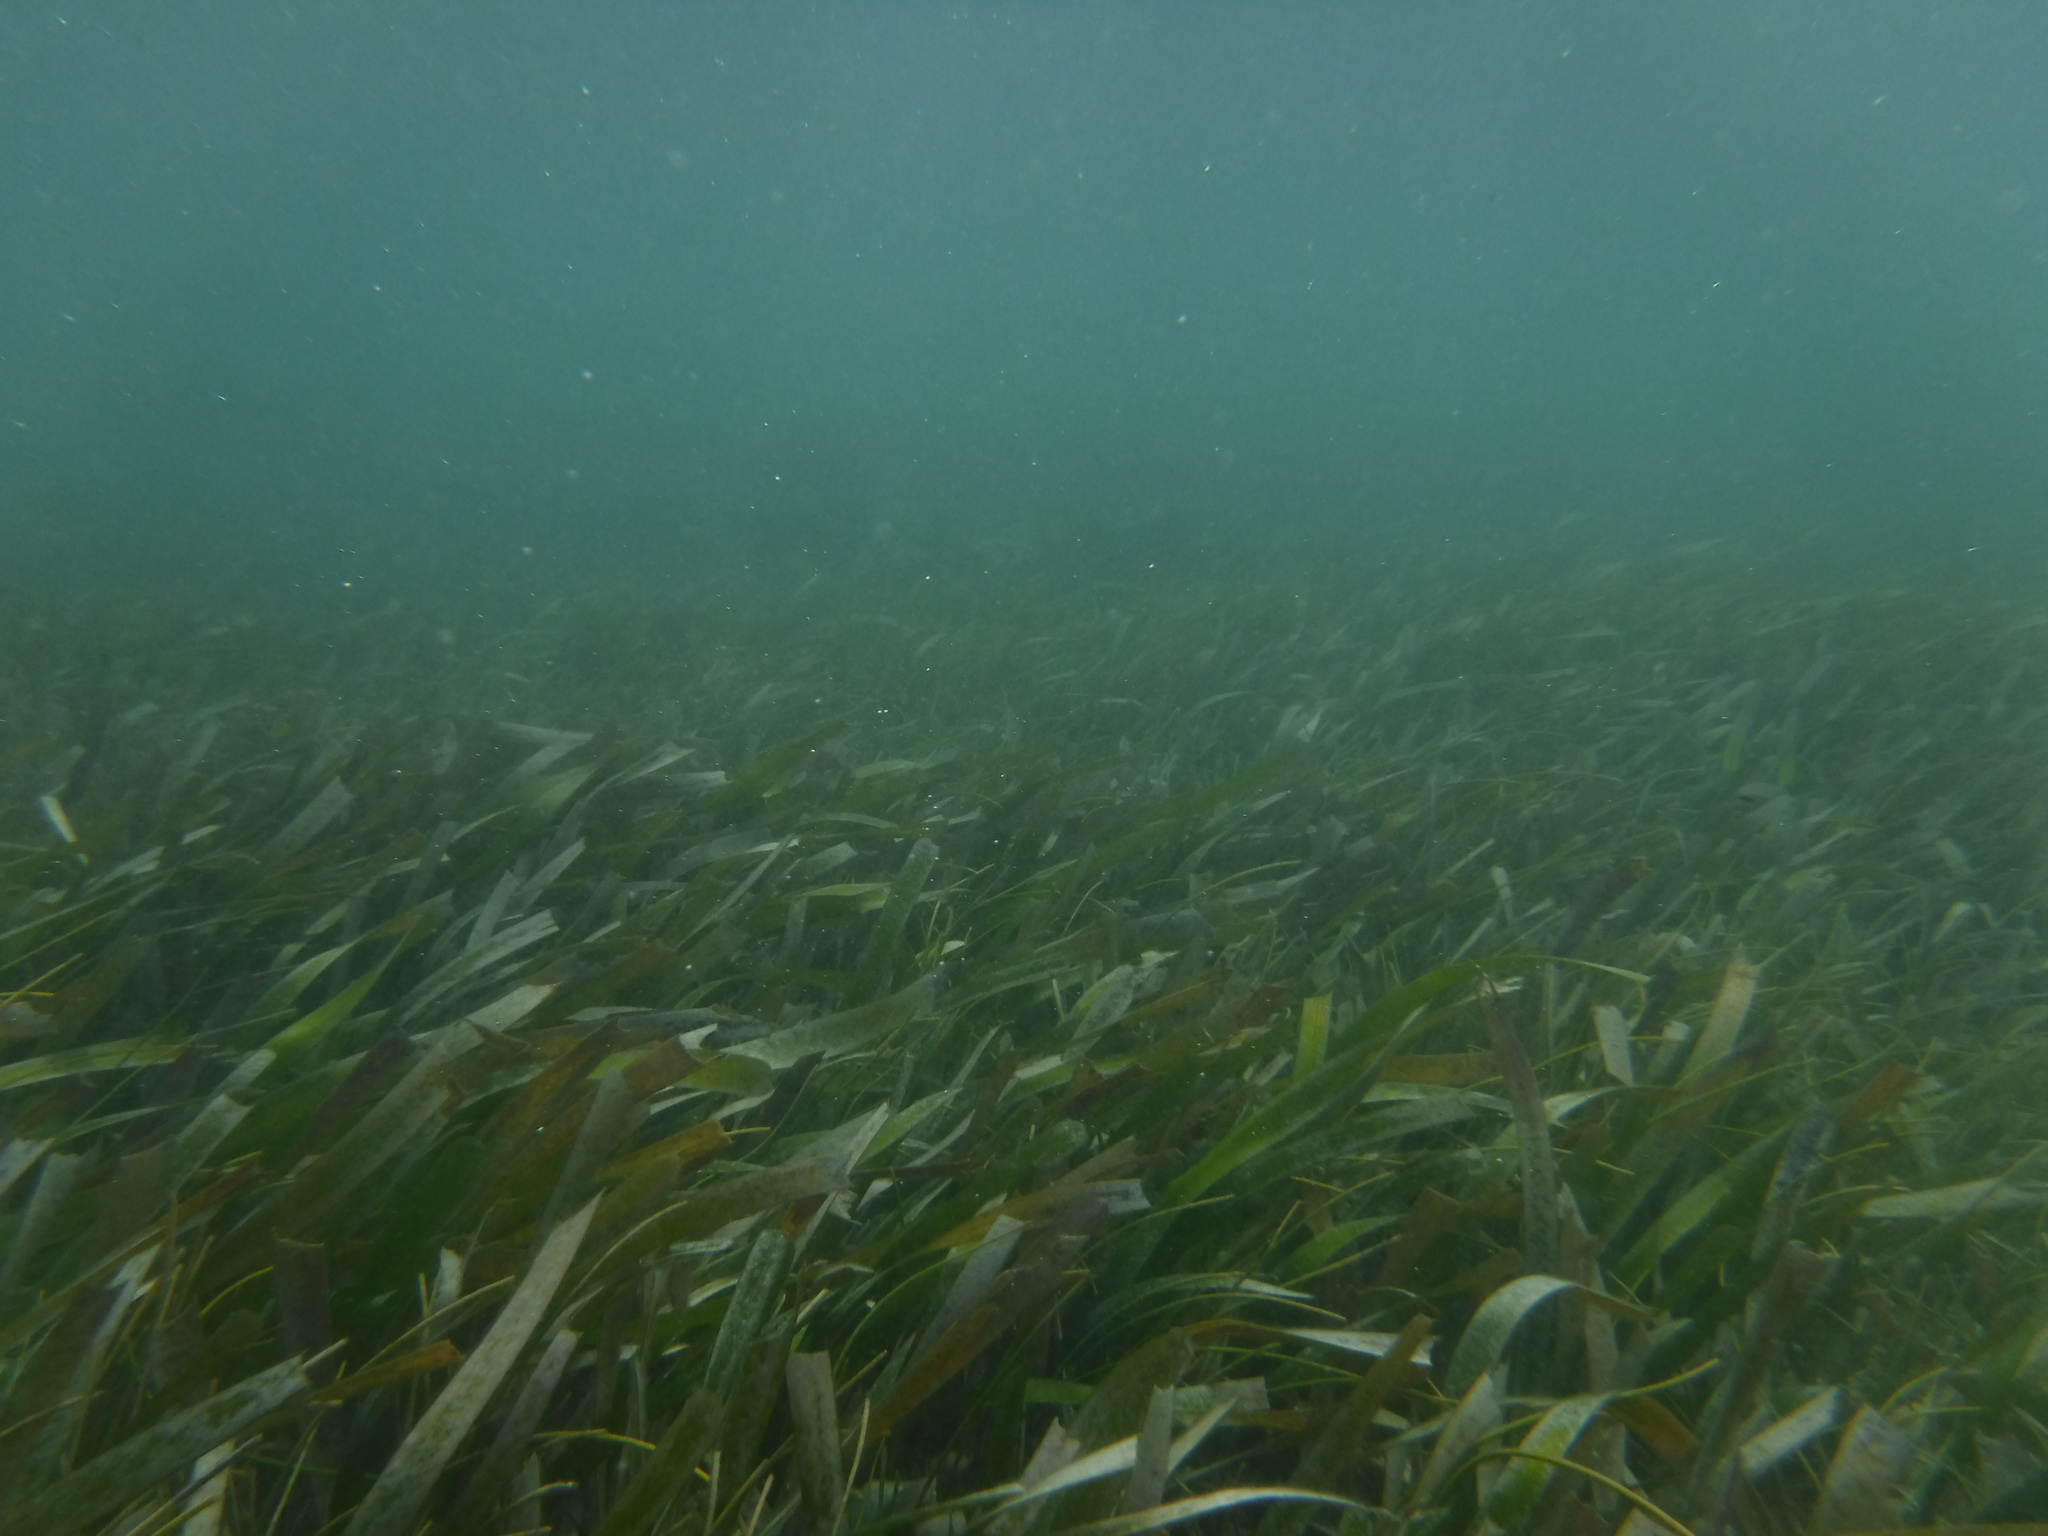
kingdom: Plantae
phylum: Tracheophyta
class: Liliopsida
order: Alismatales
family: Hydrocharitaceae
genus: Thalassia
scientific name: Thalassia testudinum
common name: Species code: tt
